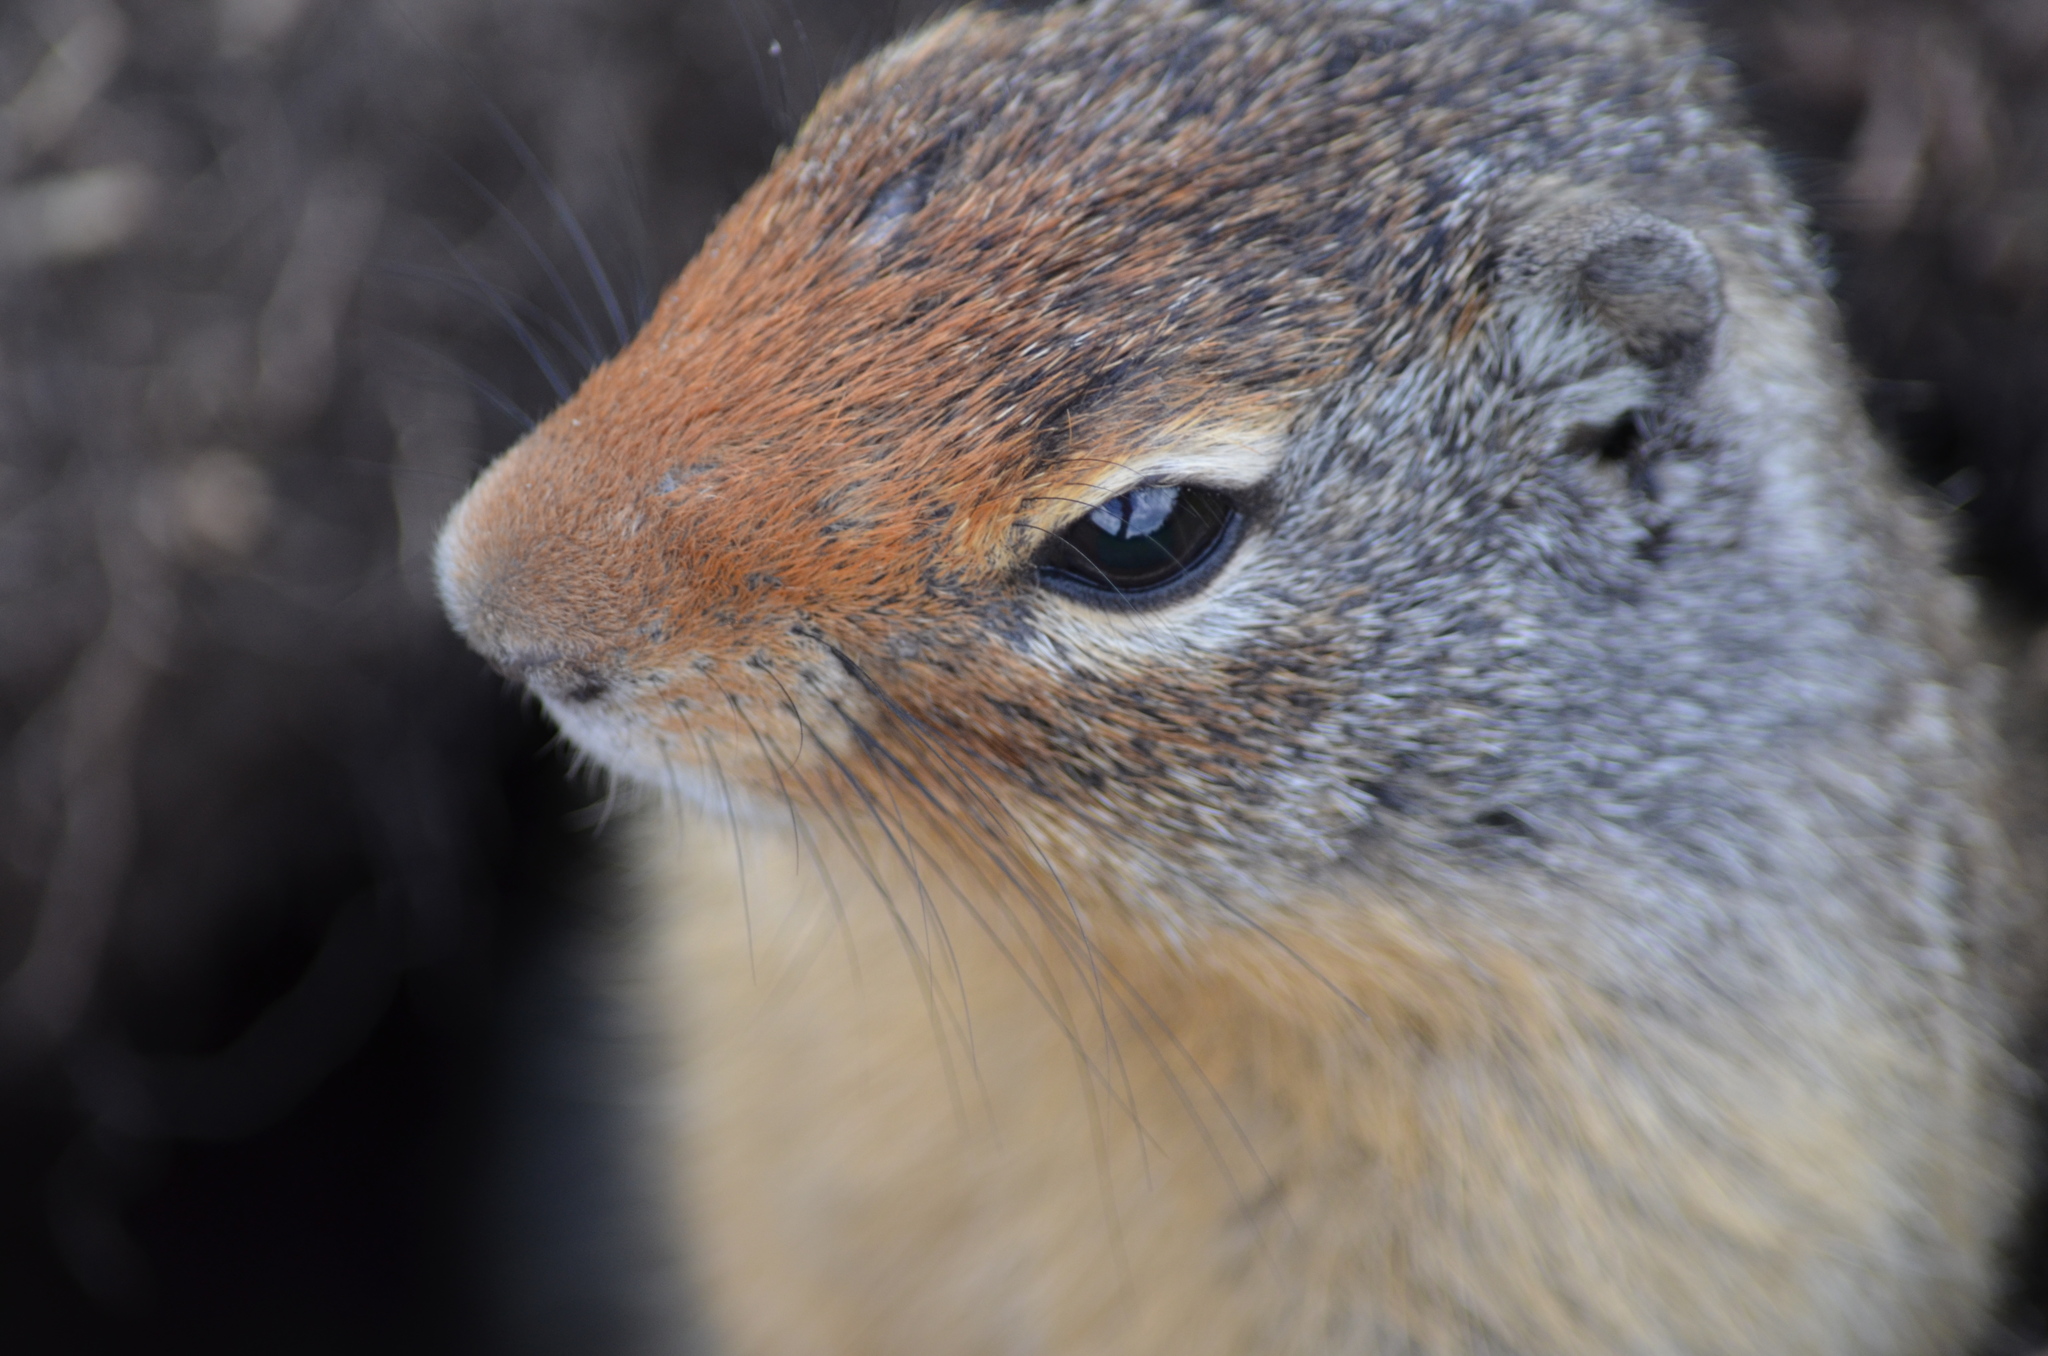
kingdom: Animalia
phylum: Chordata
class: Mammalia
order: Rodentia
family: Sciuridae
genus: Urocitellus
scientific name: Urocitellus columbianus
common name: Columbian ground squirrel
